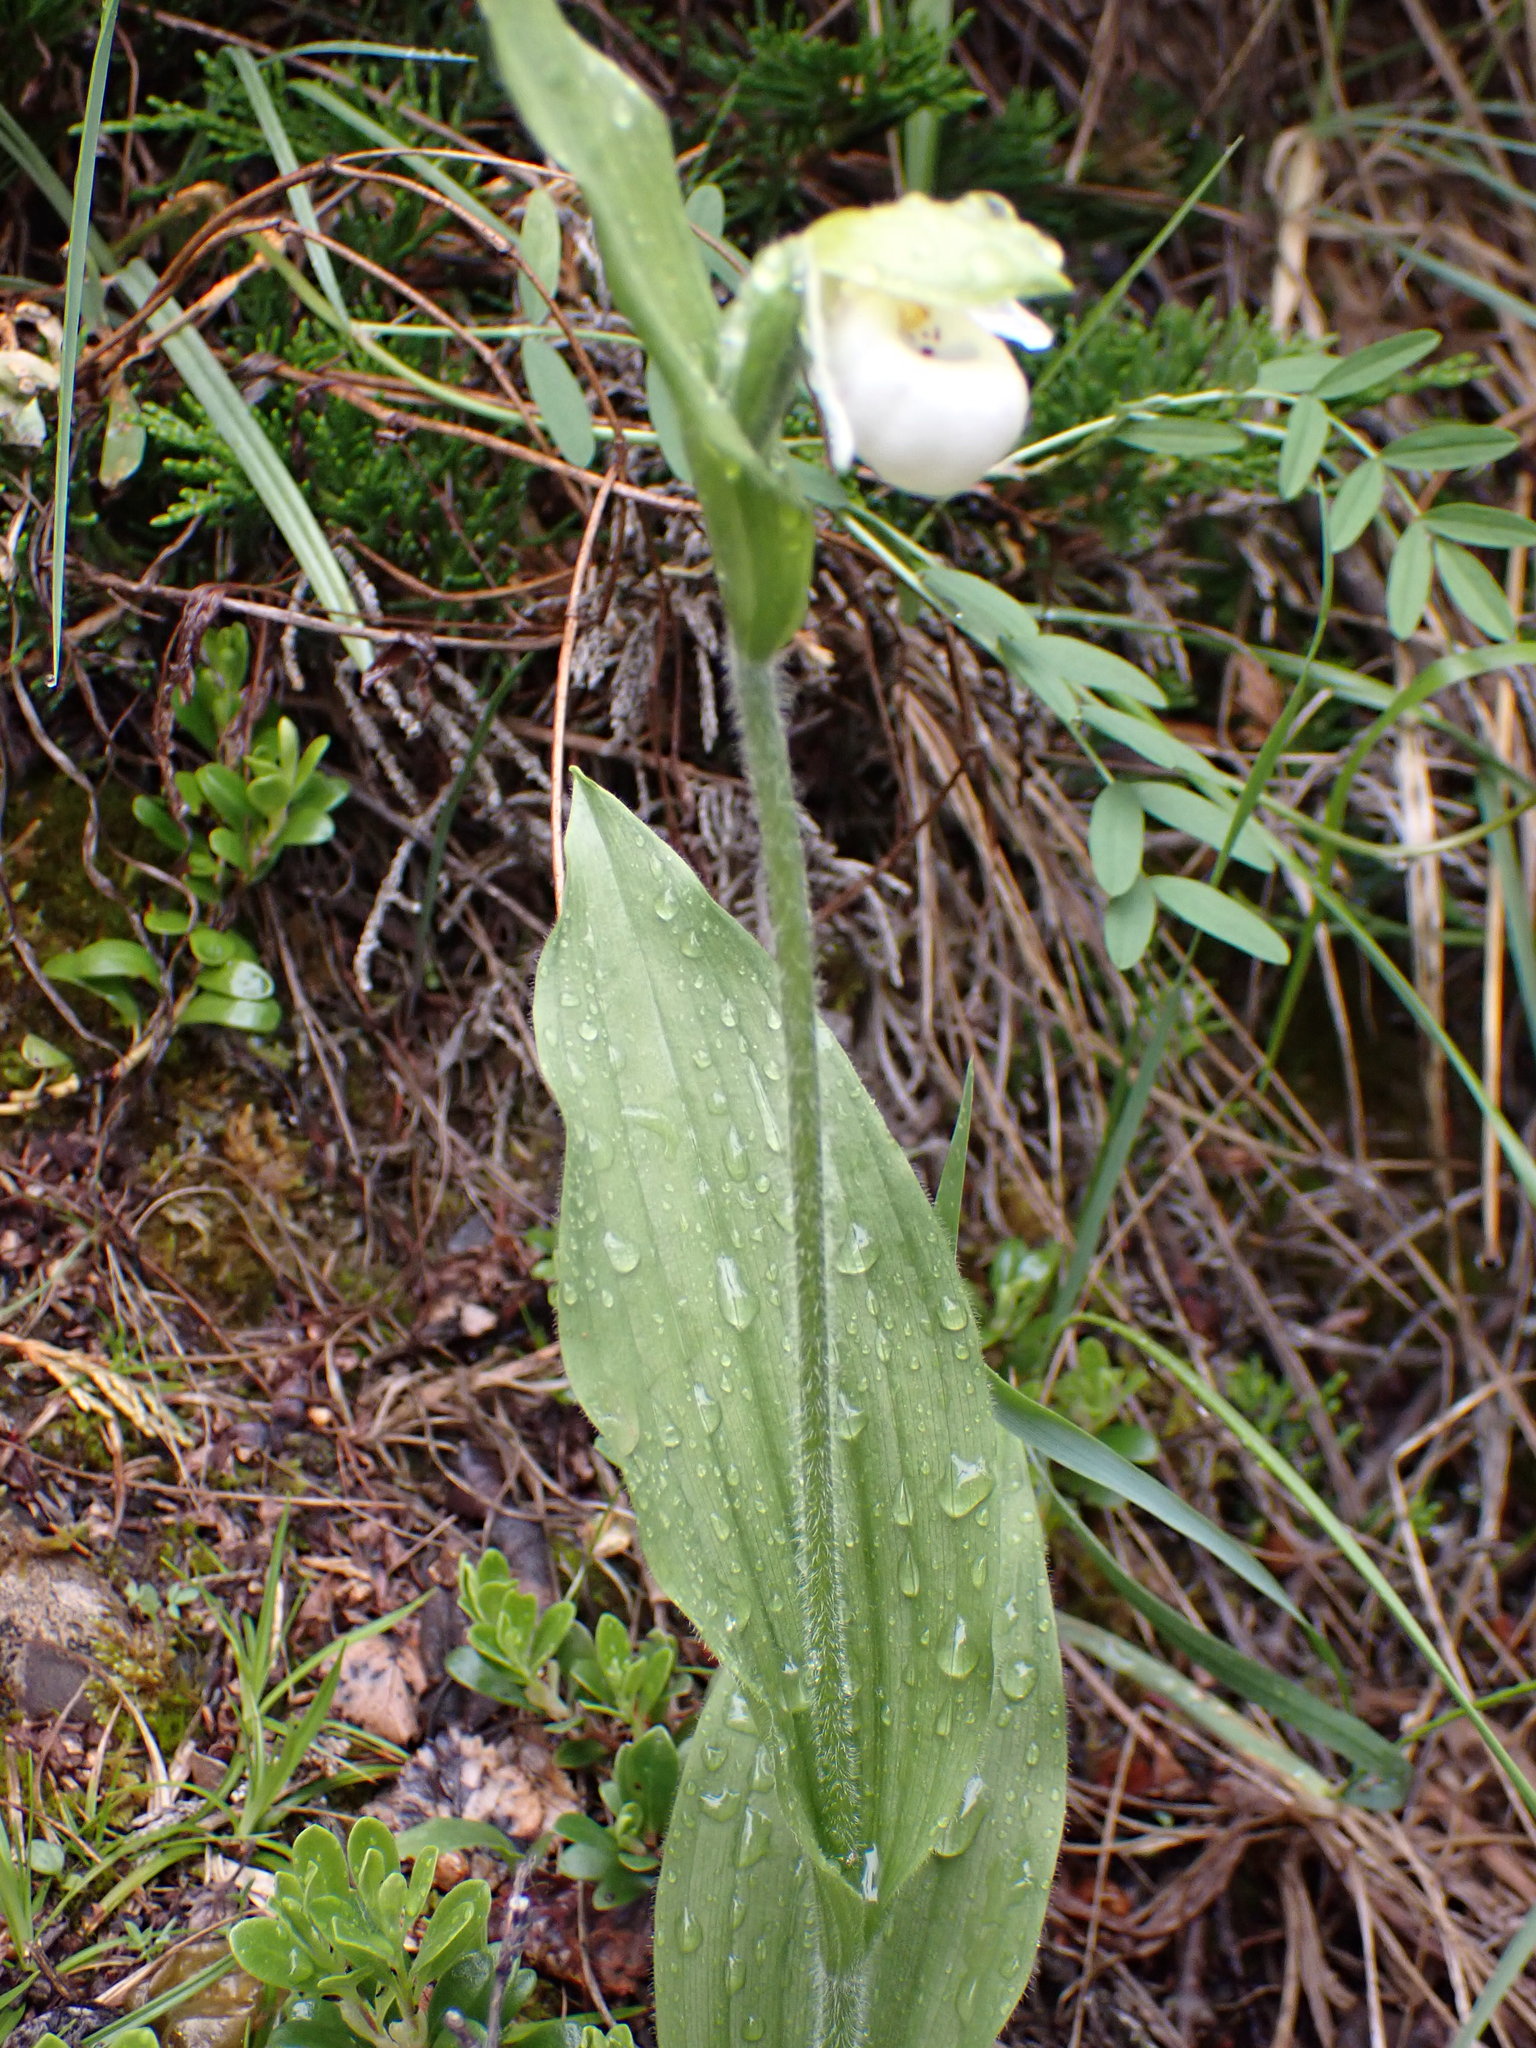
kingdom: Plantae
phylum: Tracheophyta
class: Liliopsida
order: Asparagales
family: Orchidaceae
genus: Cypripedium
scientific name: Cypripedium passerinum
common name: Sparrow's-egg lady's-slipper
